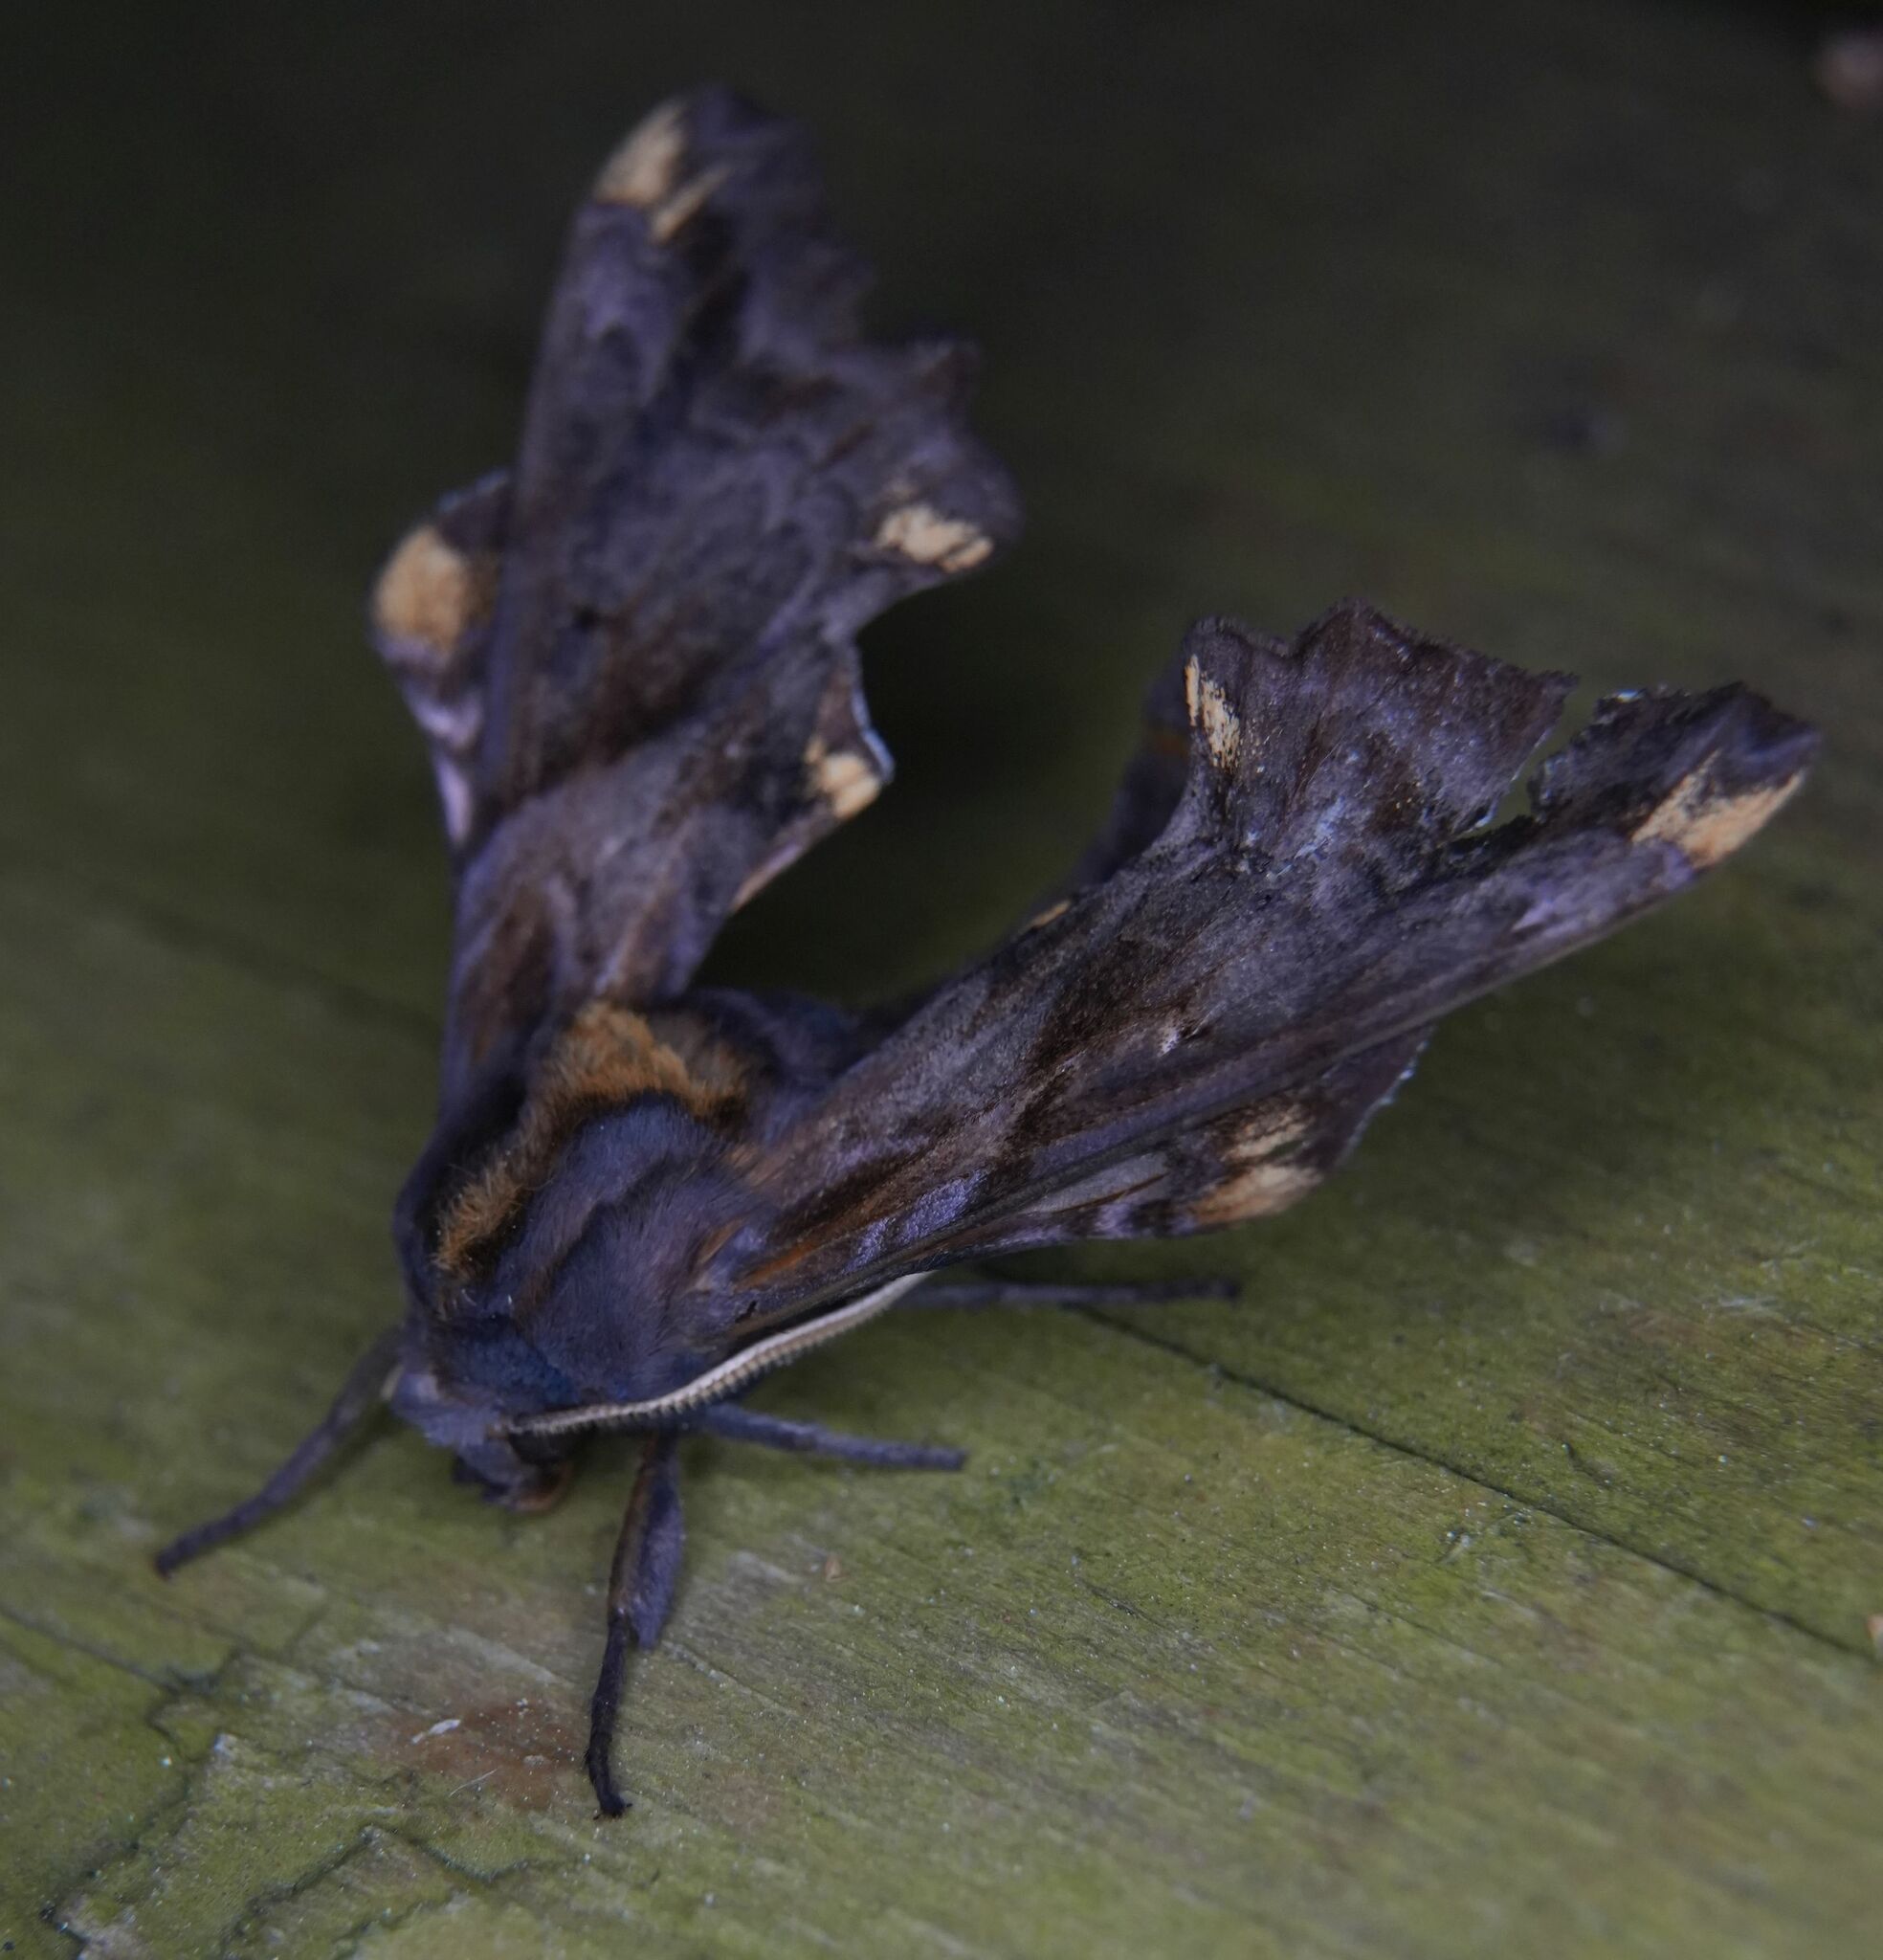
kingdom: Animalia
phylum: Arthropoda
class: Insecta
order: Lepidoptera
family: Sphingidae
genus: Paonias
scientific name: Paonias myops
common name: Small-eyed sphinx
